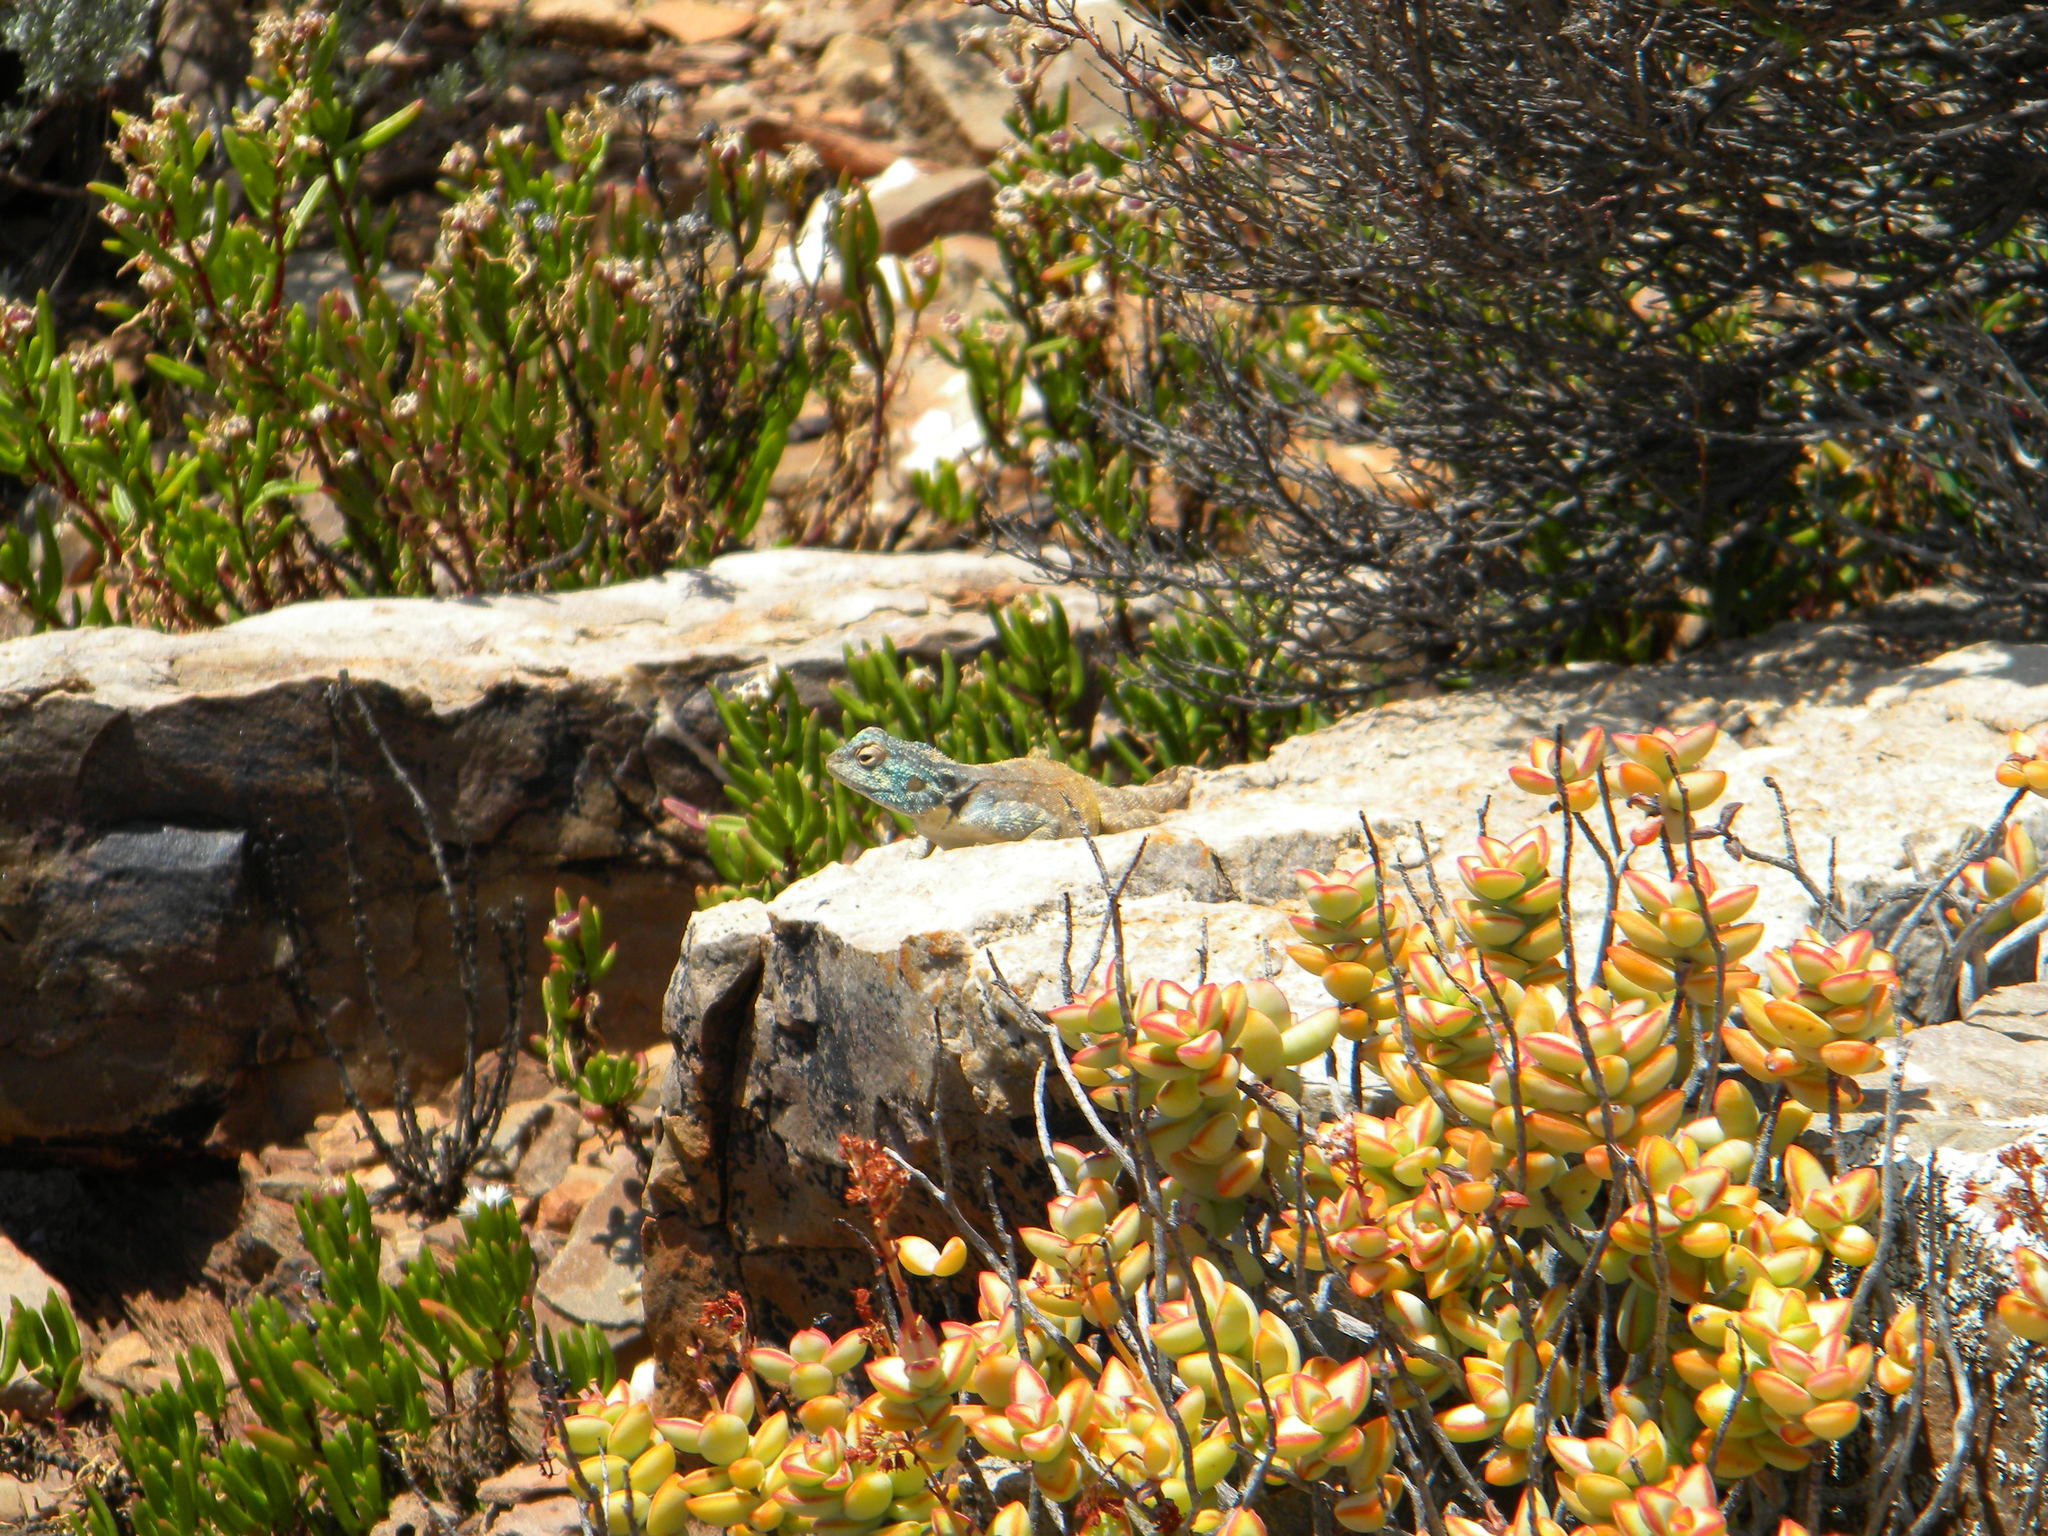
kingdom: Animalia
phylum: Chordata
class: Squamata
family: Agamidae
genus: Agama
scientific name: Agama atra
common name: Southern african rock agama
